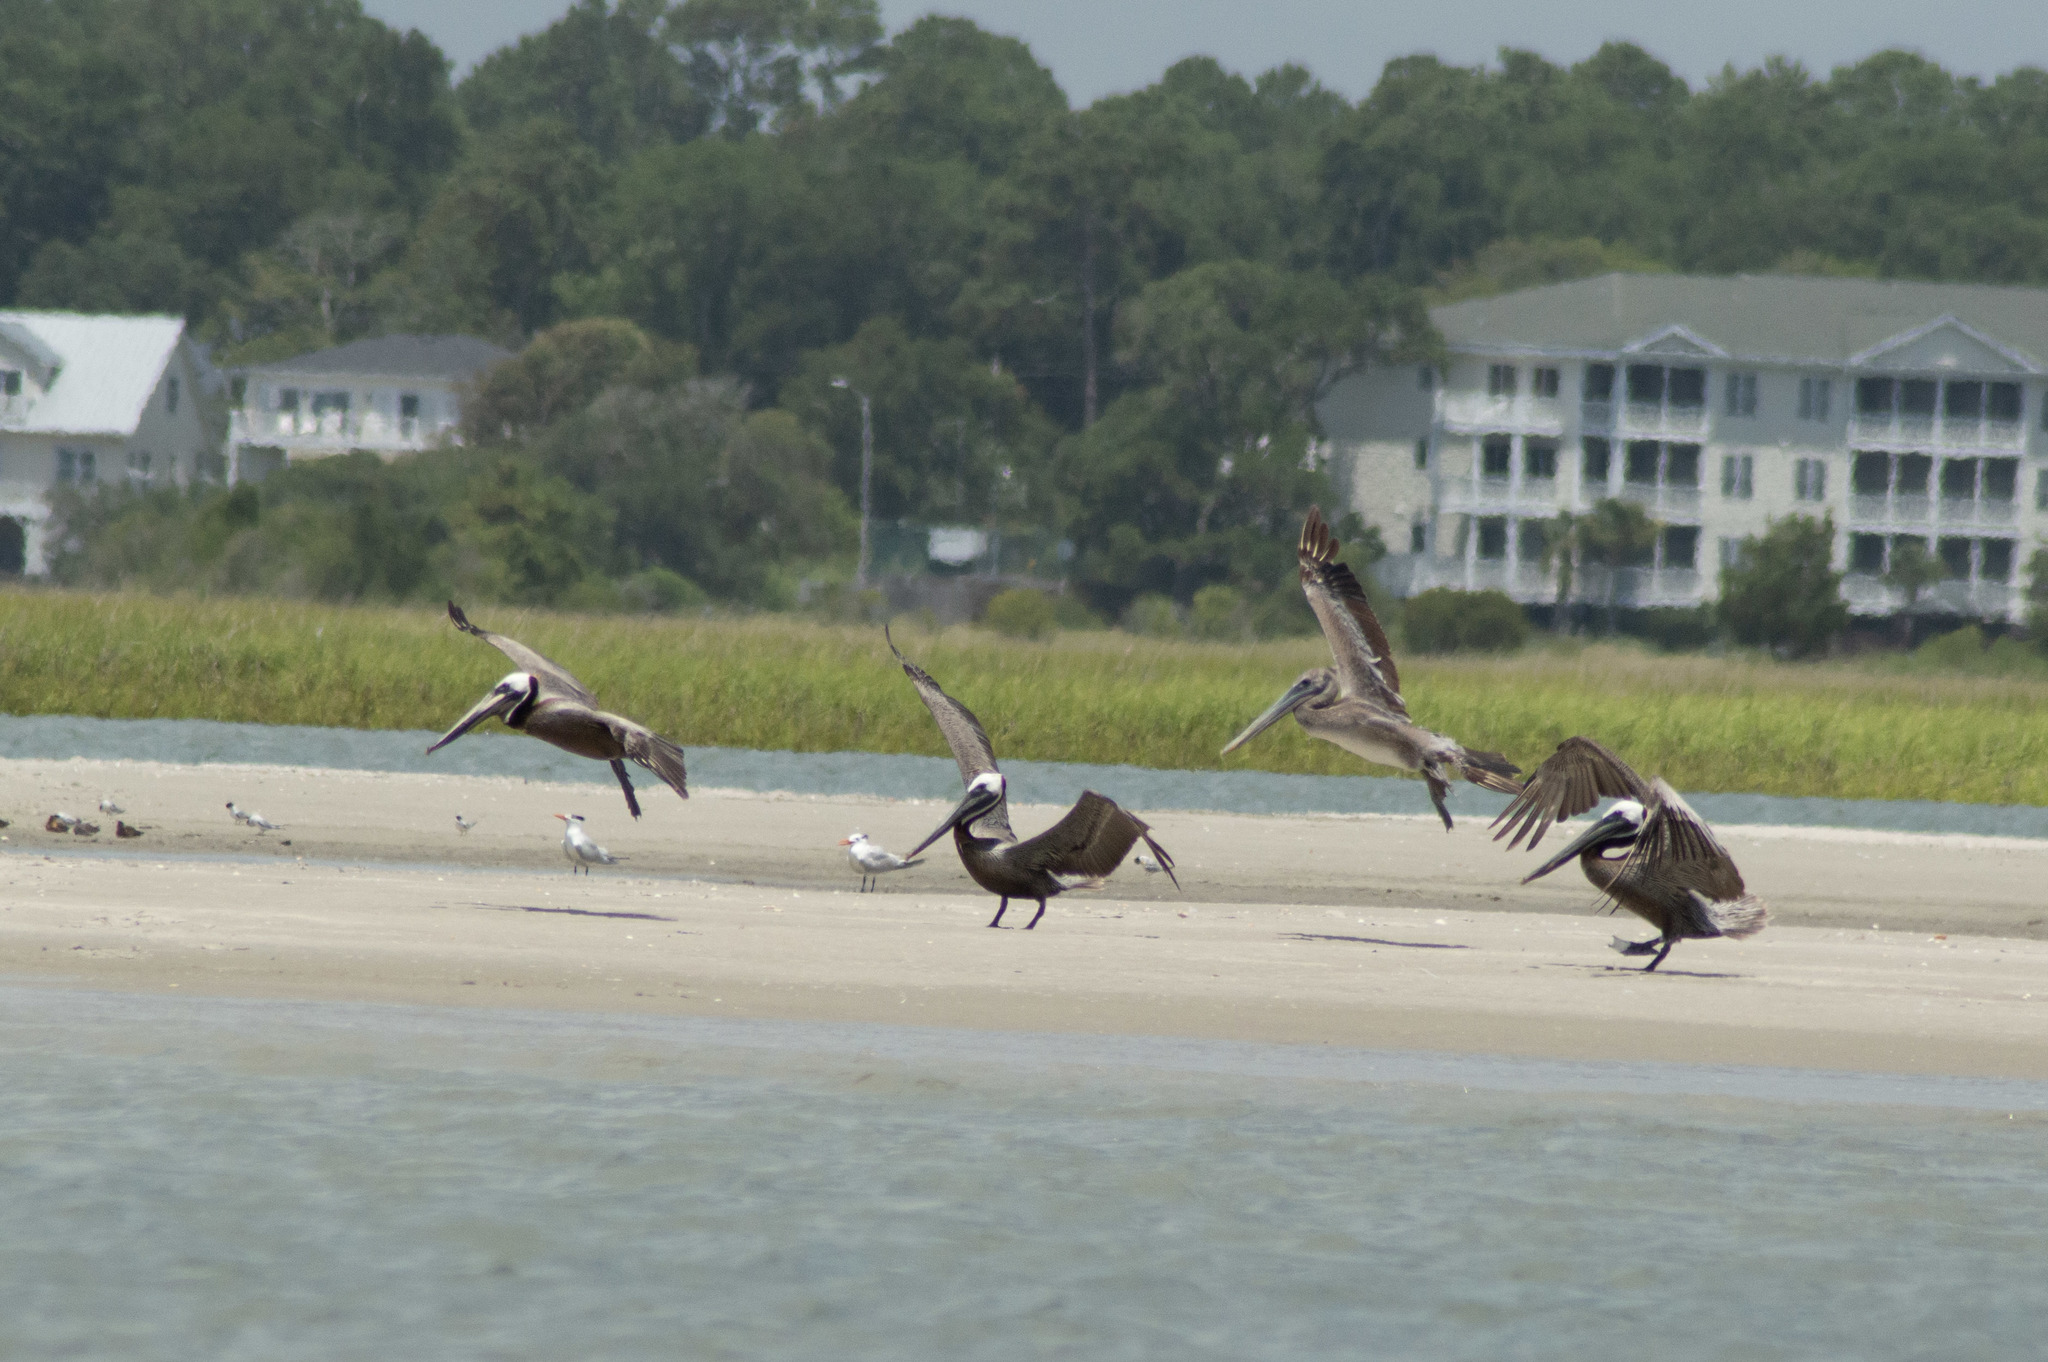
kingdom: Animalia
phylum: Chordata
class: Aves
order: Pelecaniformes
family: Pelecanidae
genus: Pelecanus
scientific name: Pelecanus occidentalis
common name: Brown pelican
